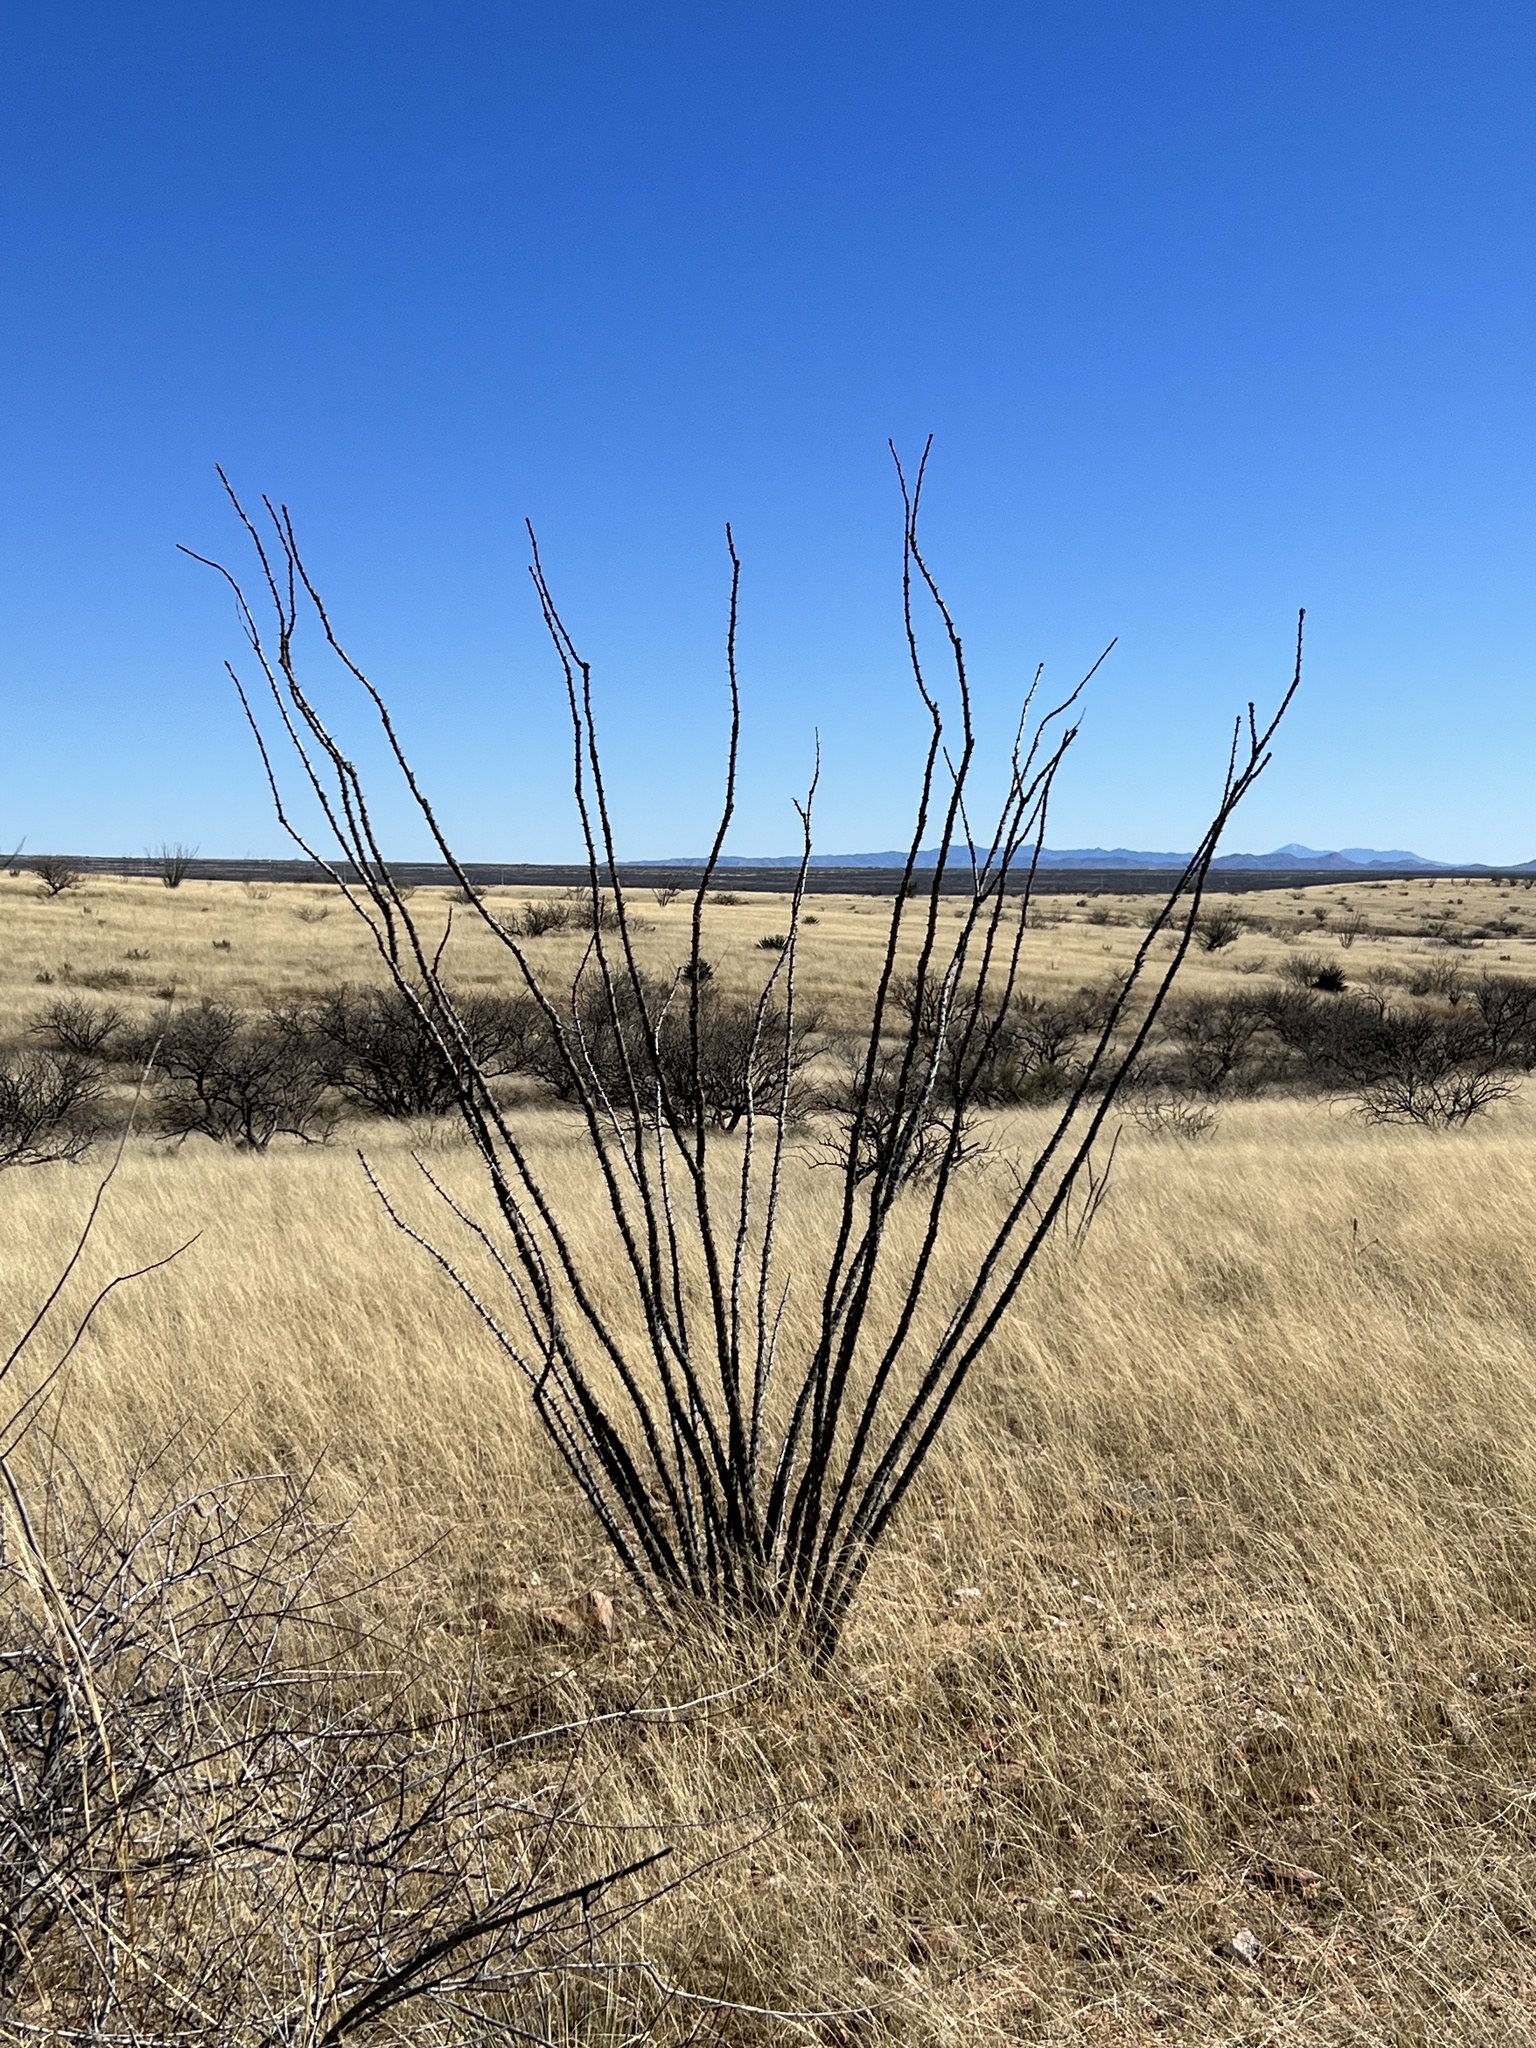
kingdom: Plantae
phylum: Tracheophyta
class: Magnoliopsida
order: Ericales
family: Fouquieriaceae
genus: Fouquieria
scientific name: Fouquieria splendens
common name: Vine-cactus
